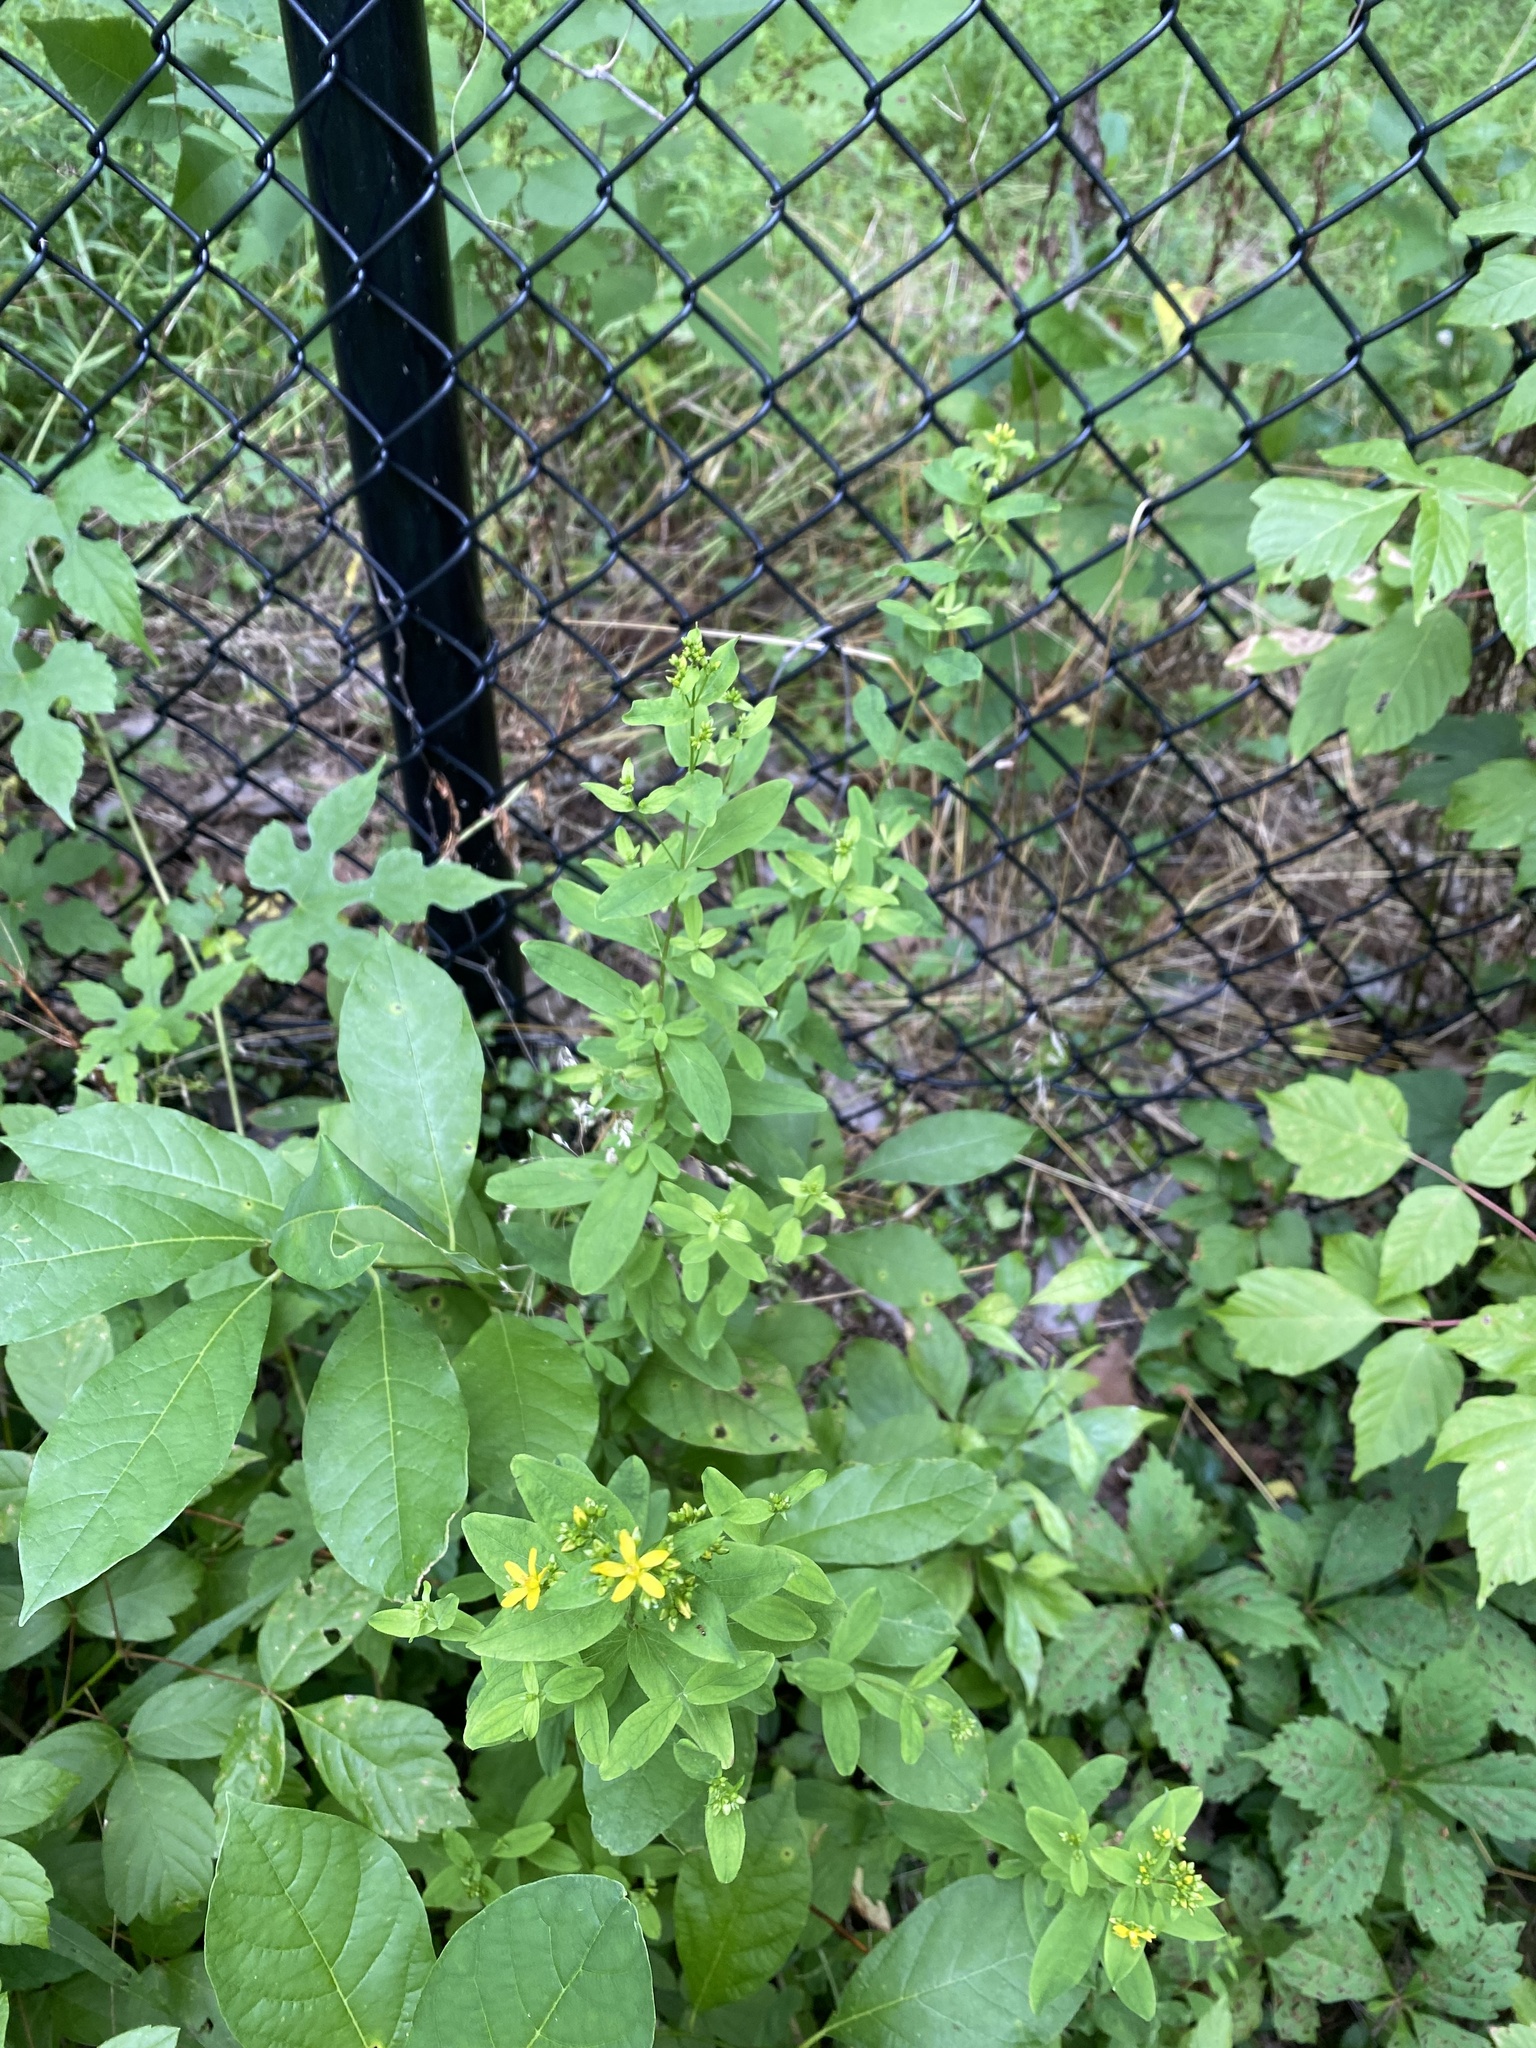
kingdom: Plantae
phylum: Tracheophyta
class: Magnoliopsida
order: Malpighiales
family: Hypericaceae
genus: Hypericum
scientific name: Hypericum punctatum
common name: Spotted st. john's-wort
